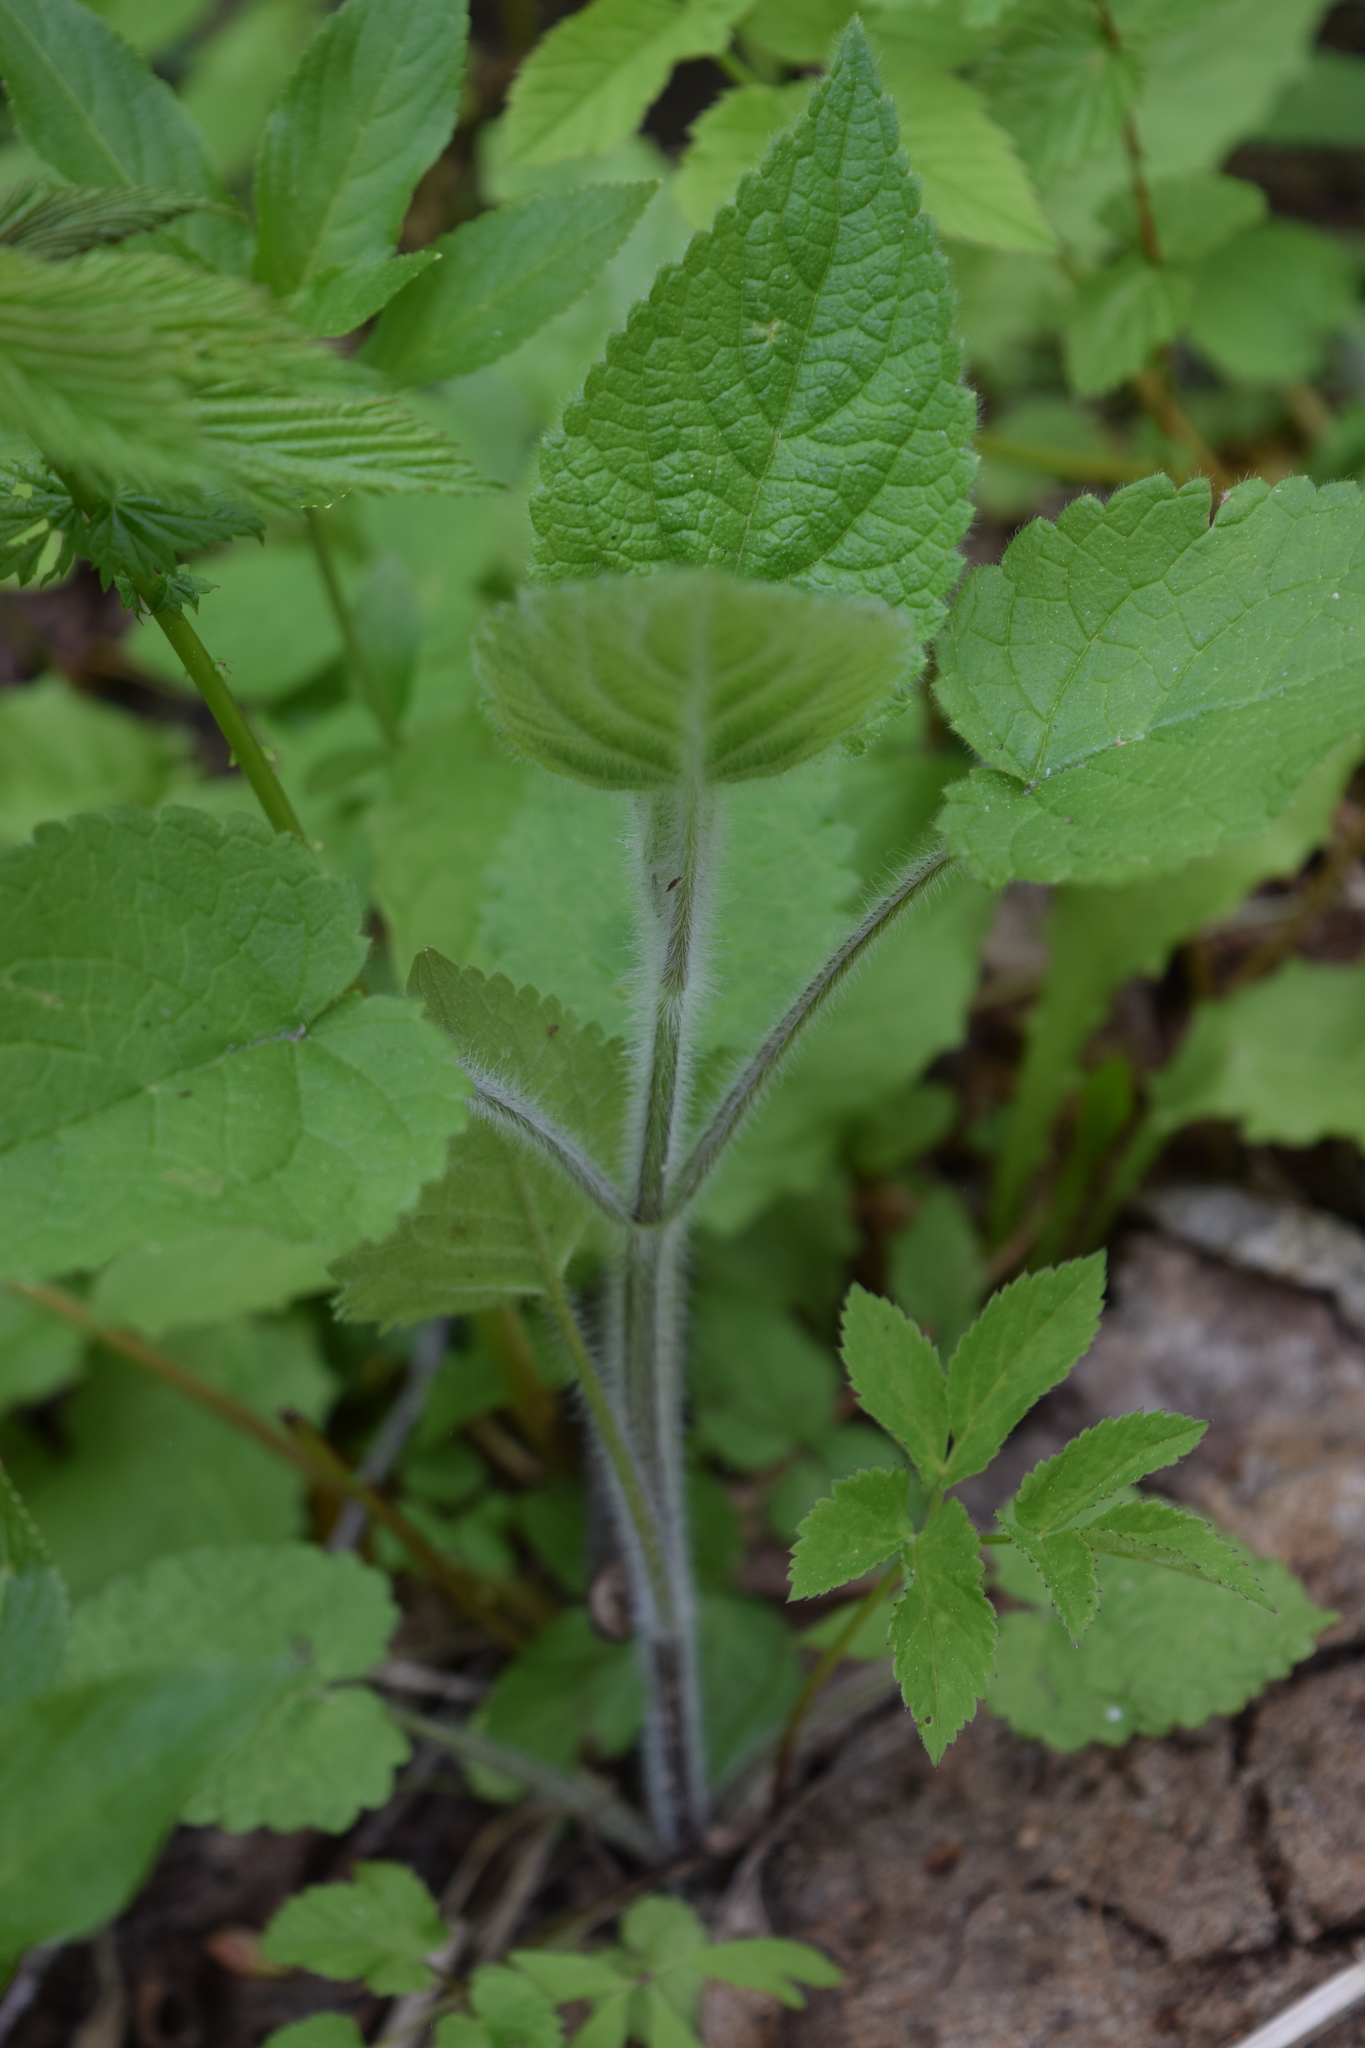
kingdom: Plantae
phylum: Tracheophyta
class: Magnoliopsida
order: Lamiales
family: Lamiaceae
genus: Stachys
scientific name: Stachys sylvatica
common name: Hedge woundwort
